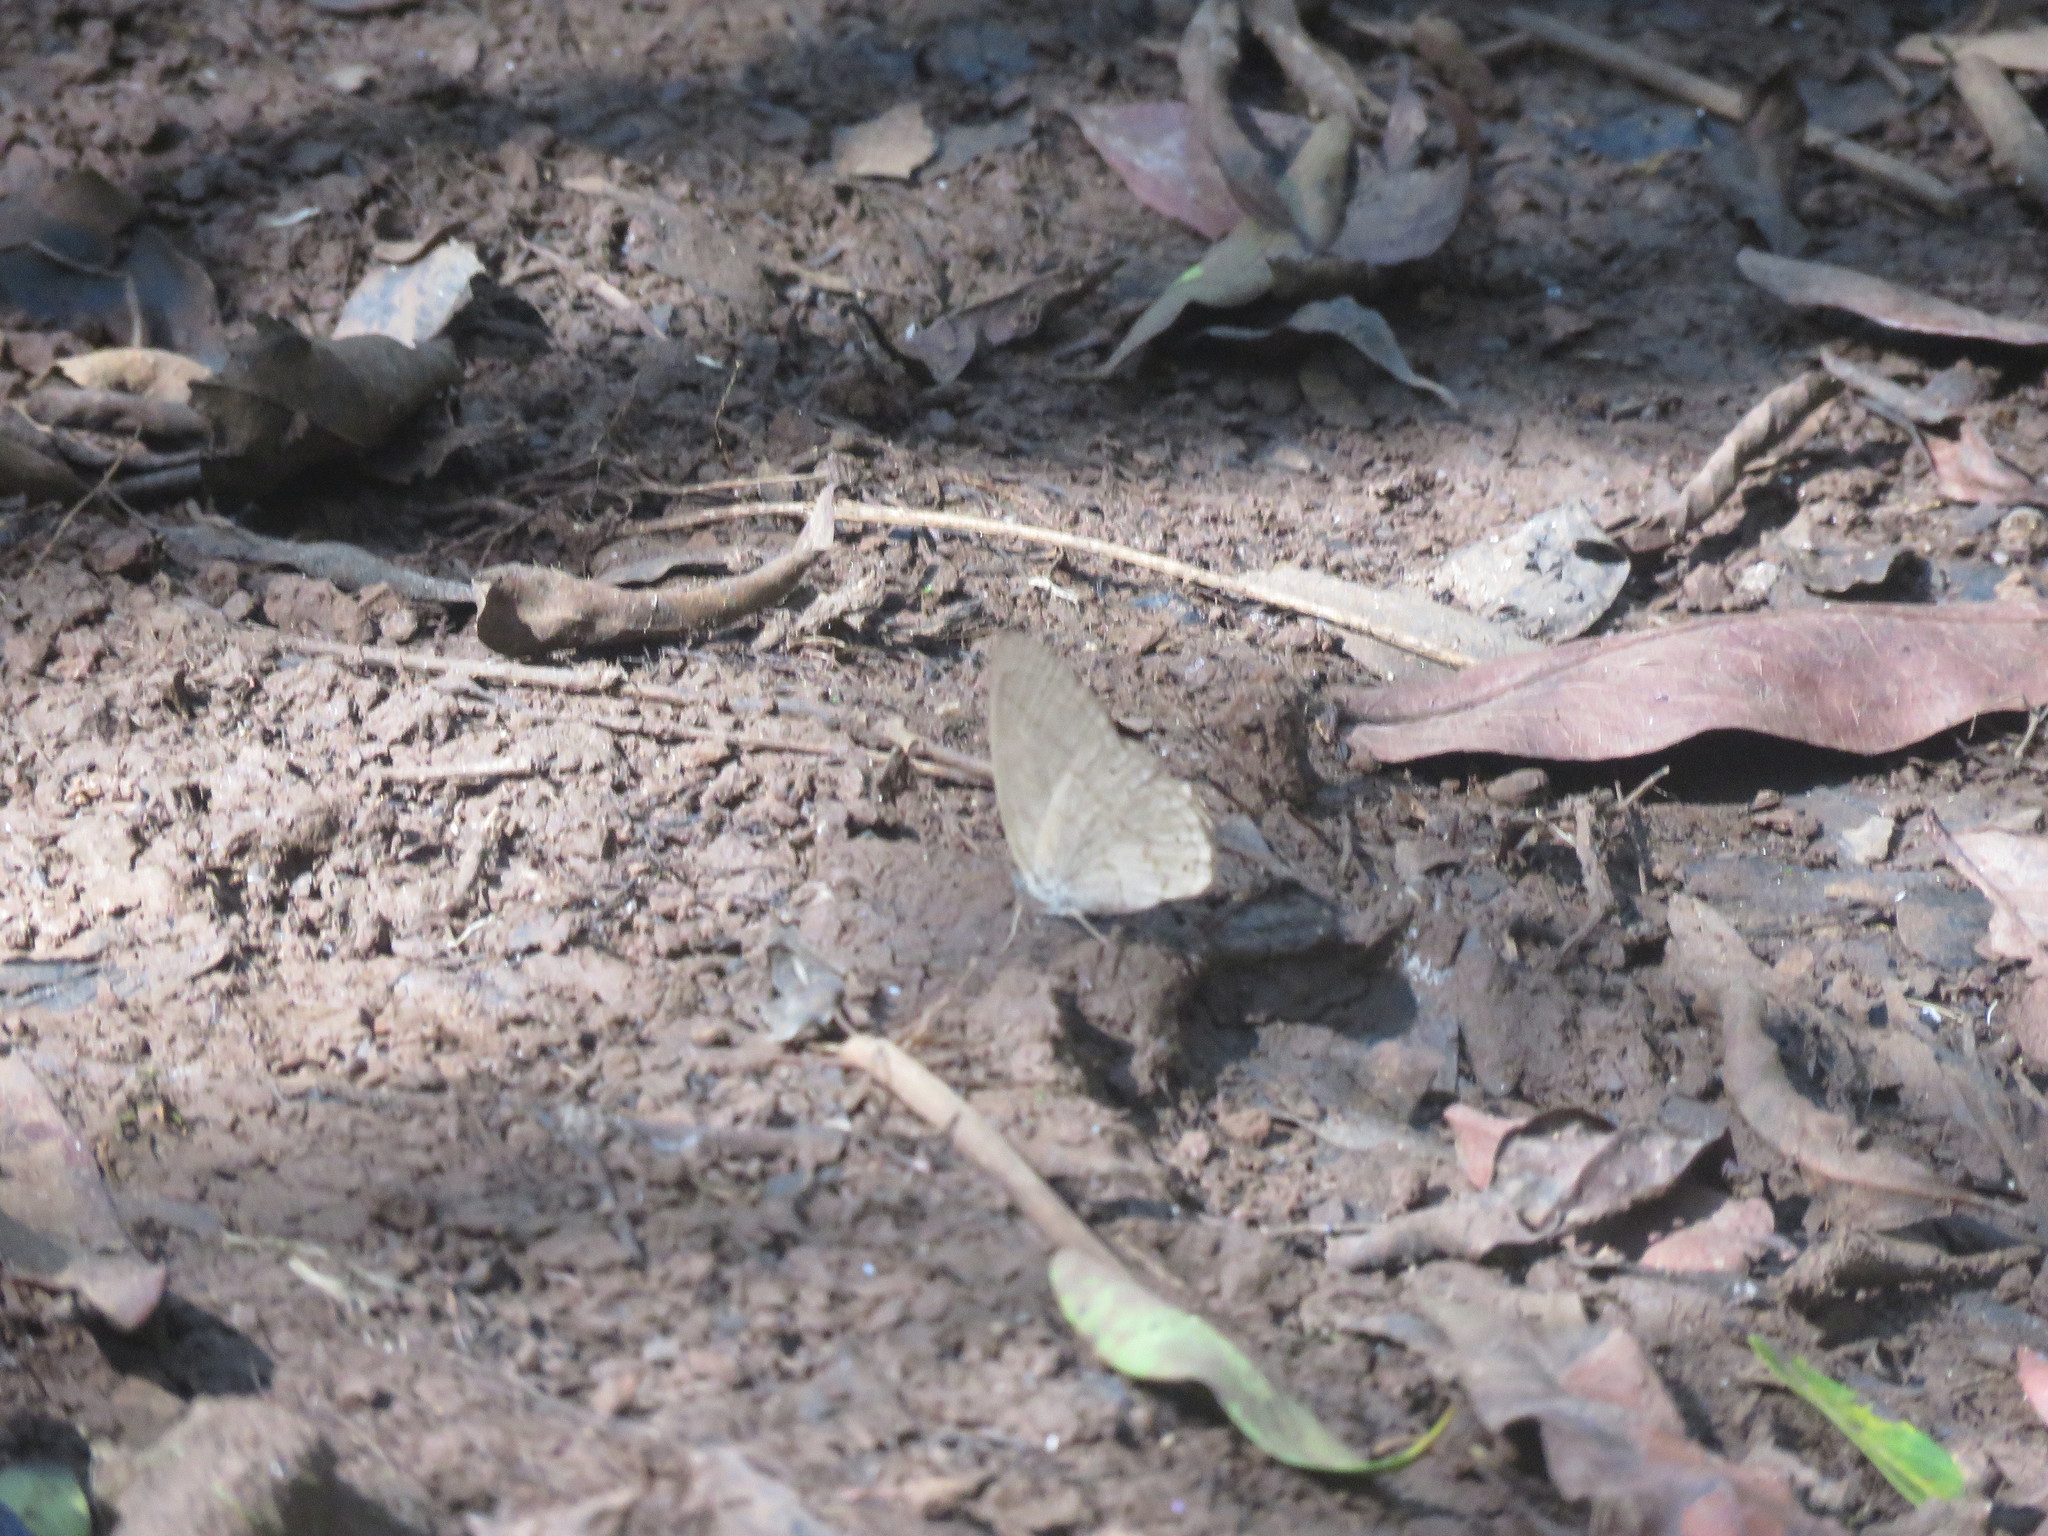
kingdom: Animalia
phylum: Arthropoda
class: Insecta
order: Lepidoptera
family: Nymphalidae
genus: Euptychiina
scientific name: Euptychiina
